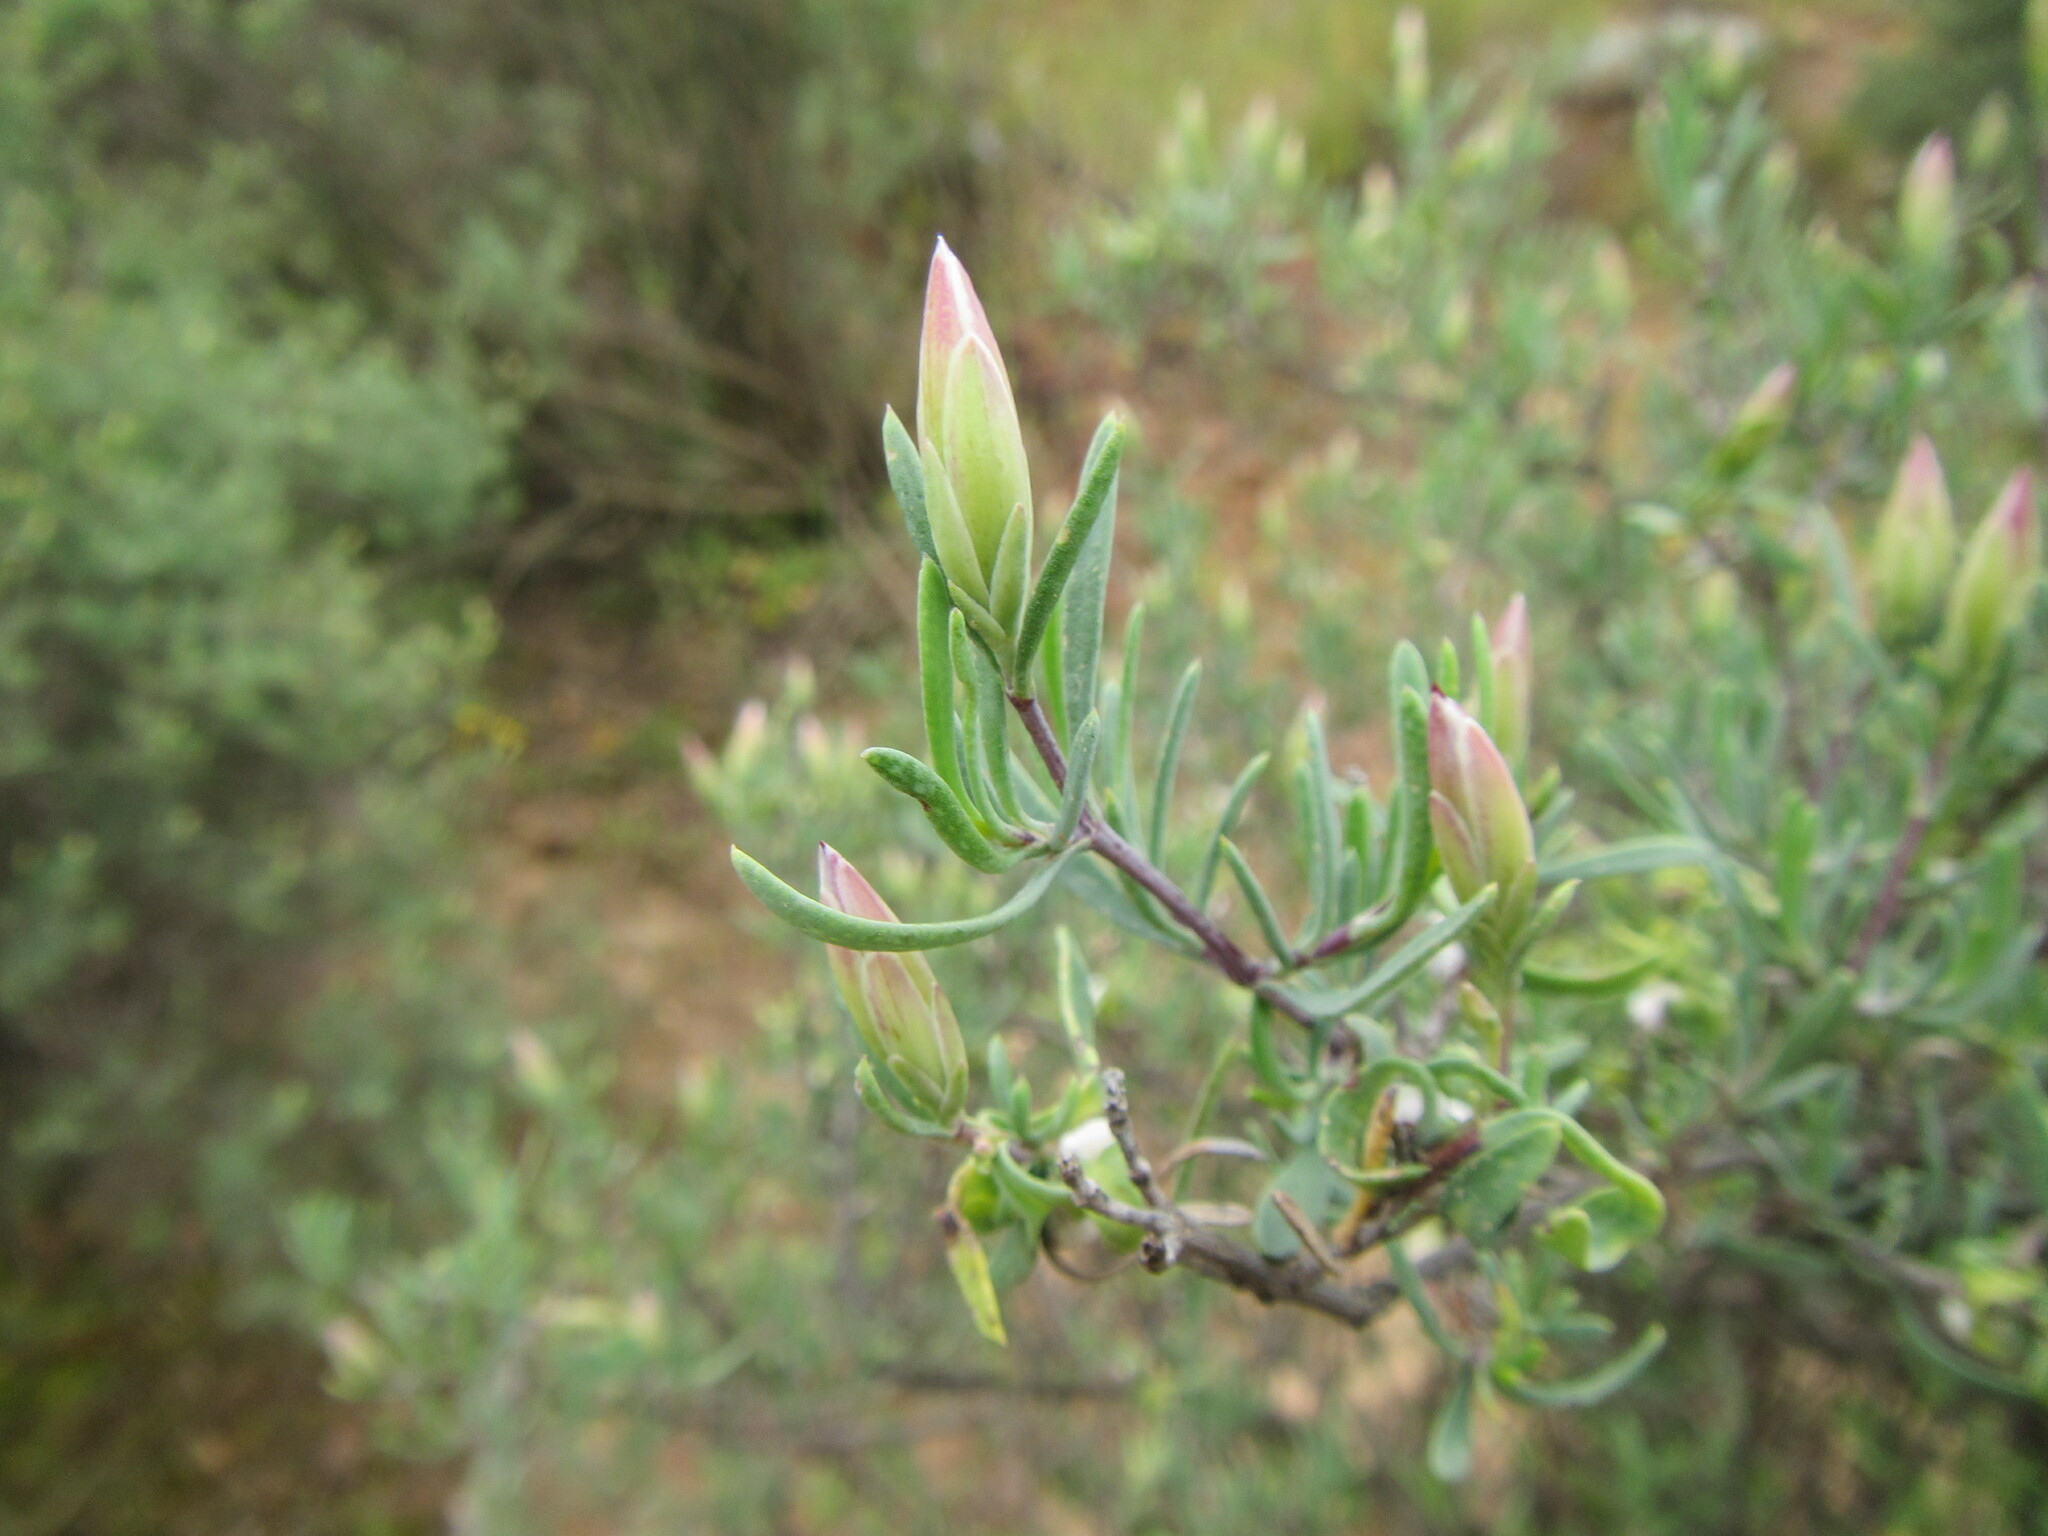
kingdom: Plantae
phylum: Tracheophyta
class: Magnoliopsida
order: Asterales
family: Asteraceae
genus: Pteronia
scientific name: Pteronia leptospermoides
